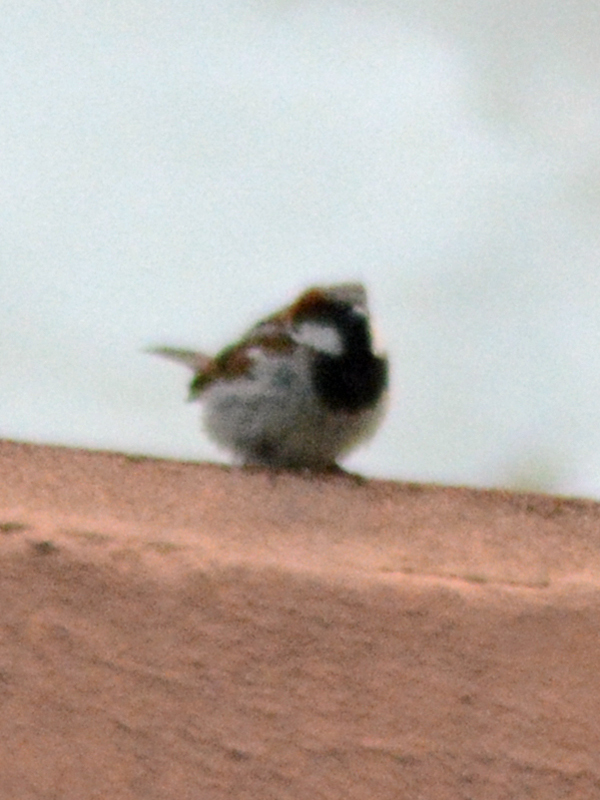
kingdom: Animalia
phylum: Chordata
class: Aves
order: Passeriformes
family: Passeridae
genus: Passer
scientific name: Passer domesticus
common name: House sparrow
